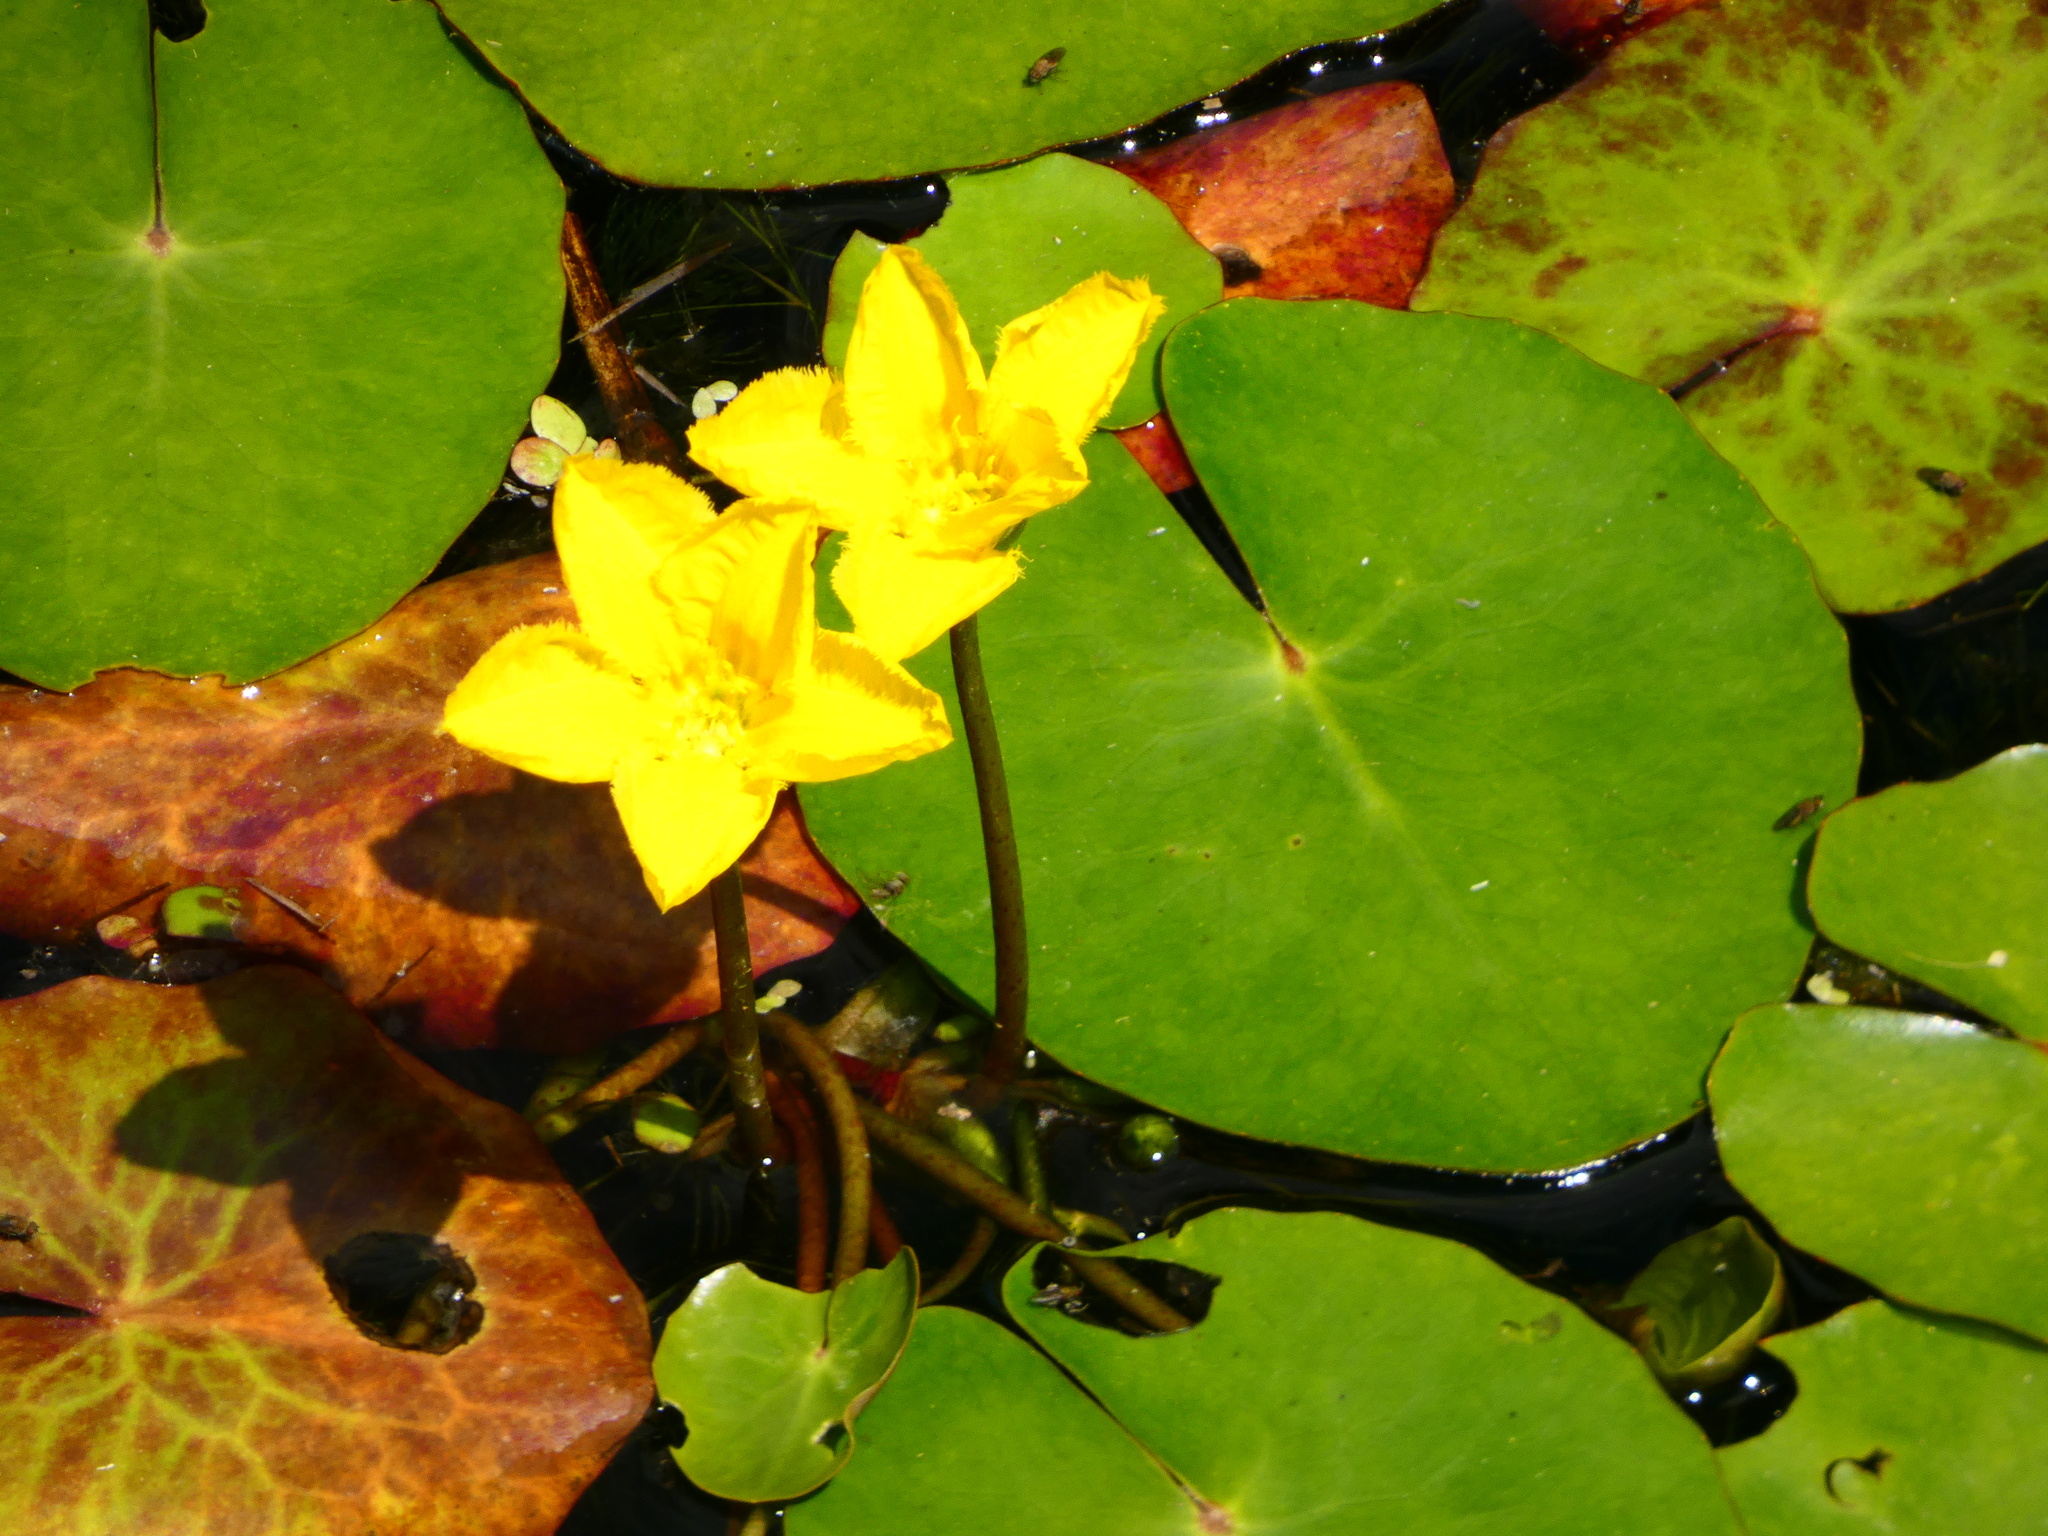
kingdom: Plantae
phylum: Tracheophyta
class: Magnoliopsida
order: Asterales
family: Menyanthaceae
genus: Nymphoides
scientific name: Nymphoides peltata
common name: Fringed water-lily
